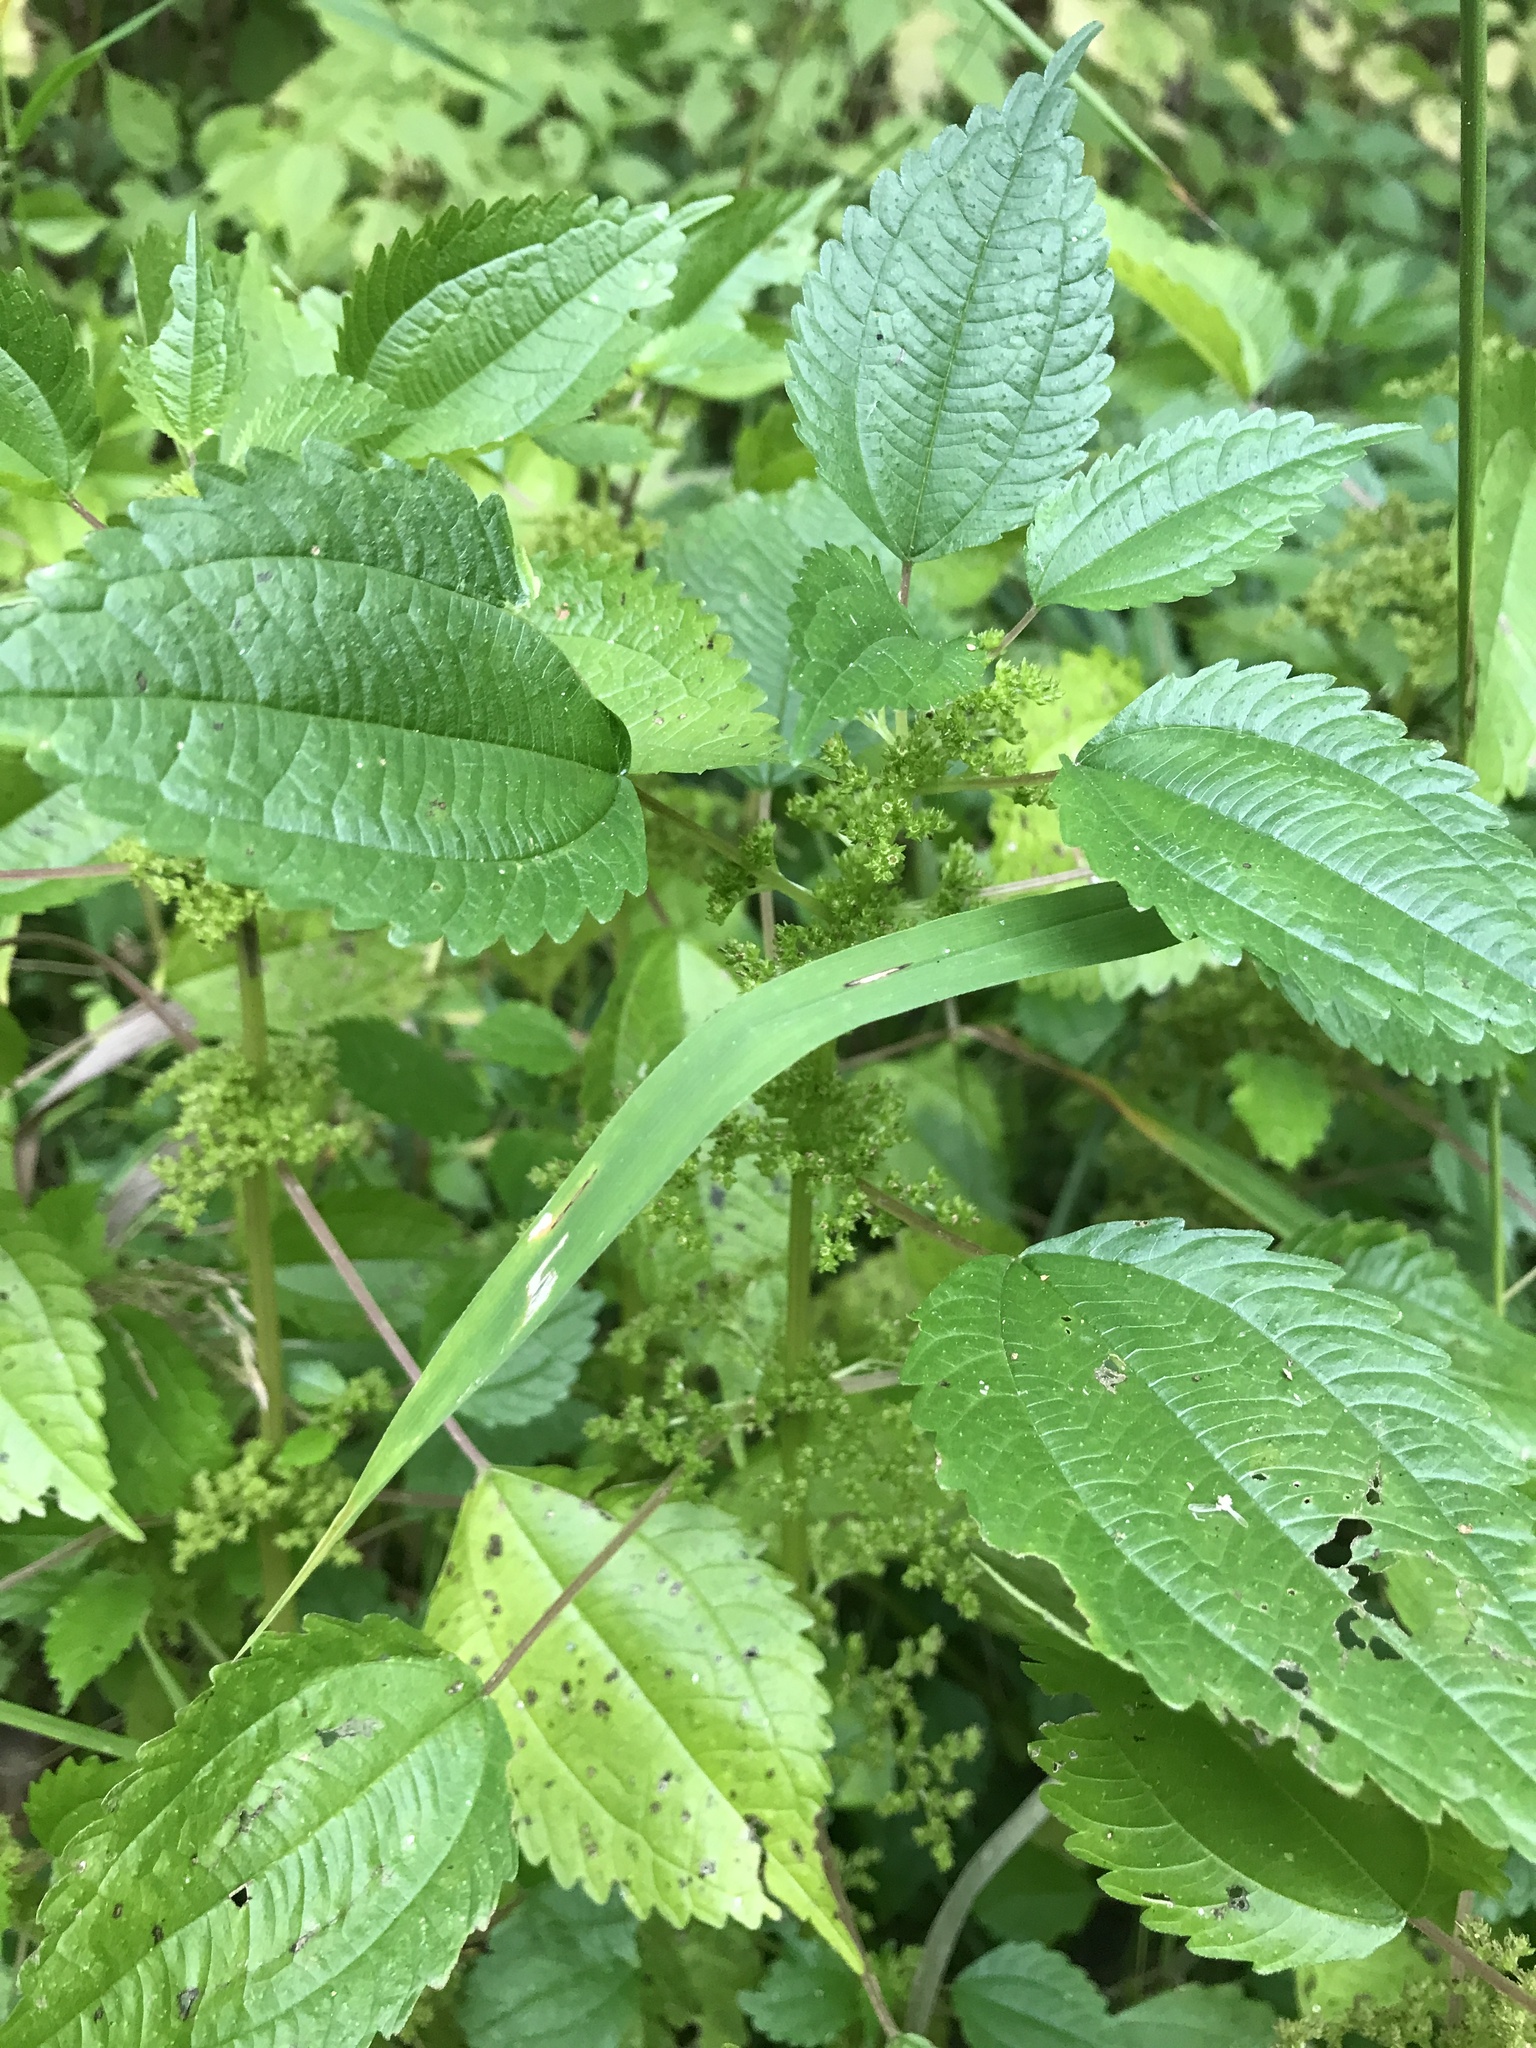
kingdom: Plantae
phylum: Tracheophyta
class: Magnoliopsida
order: Rosales
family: Urticaceae
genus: Pilea
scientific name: Pilea pumila
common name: Clearweed
